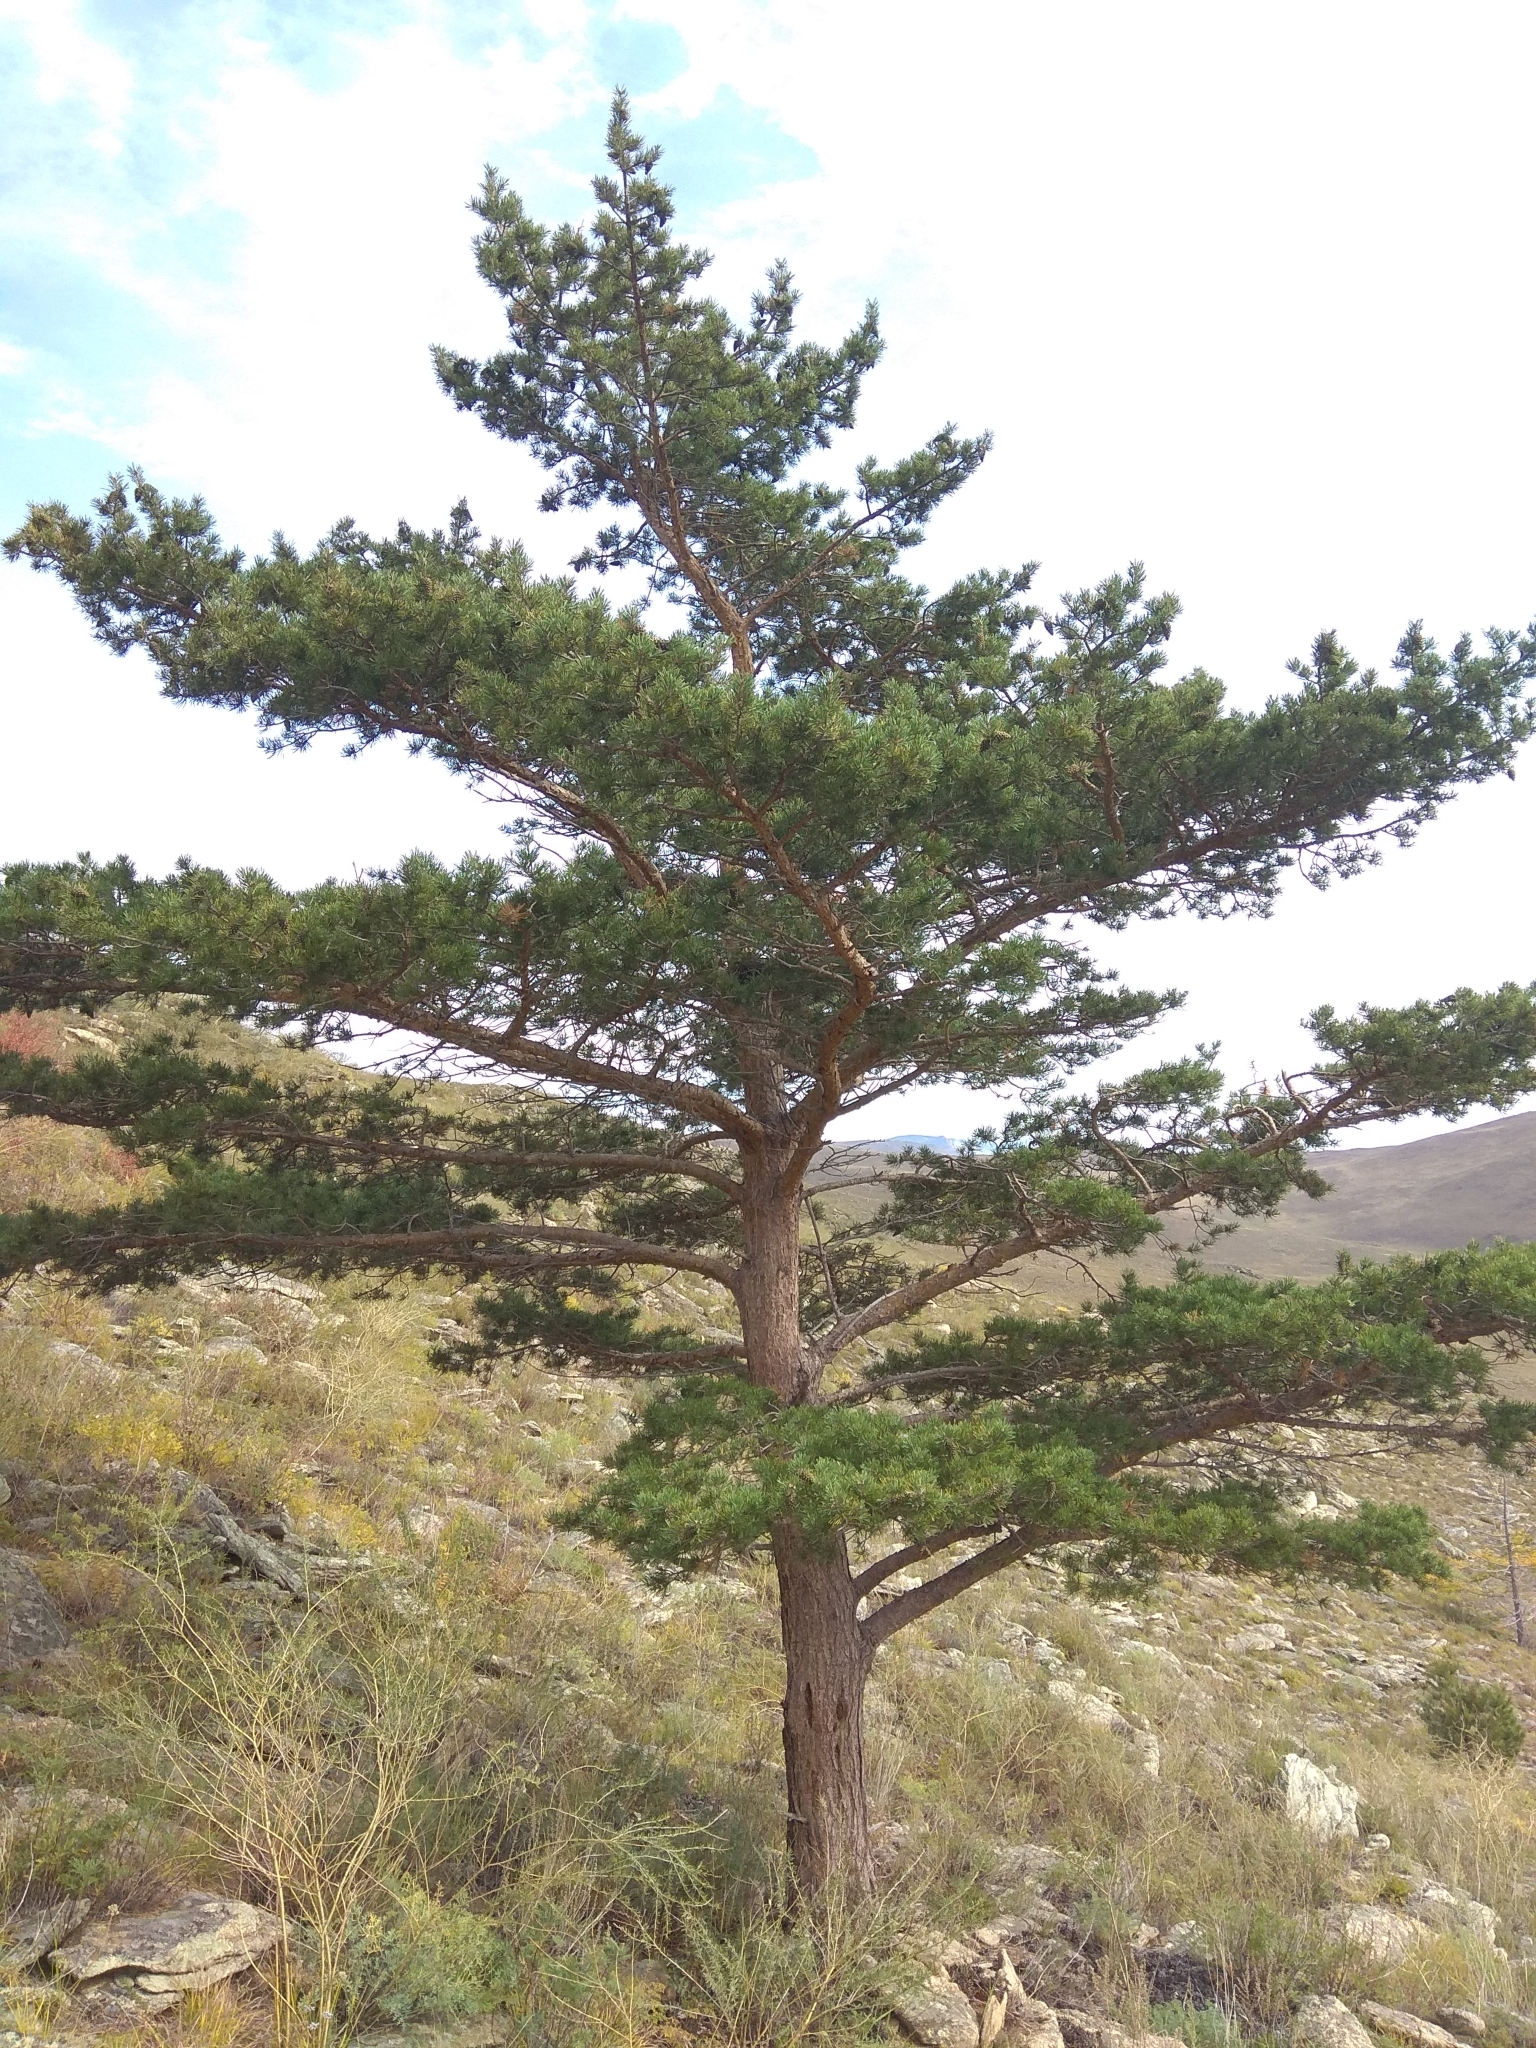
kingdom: Plantae
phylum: Tracheophyta
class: Pinopsida
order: Pinales
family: Pinaceae
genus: Pinus
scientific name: Pinus sylvestris
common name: Scots pine
